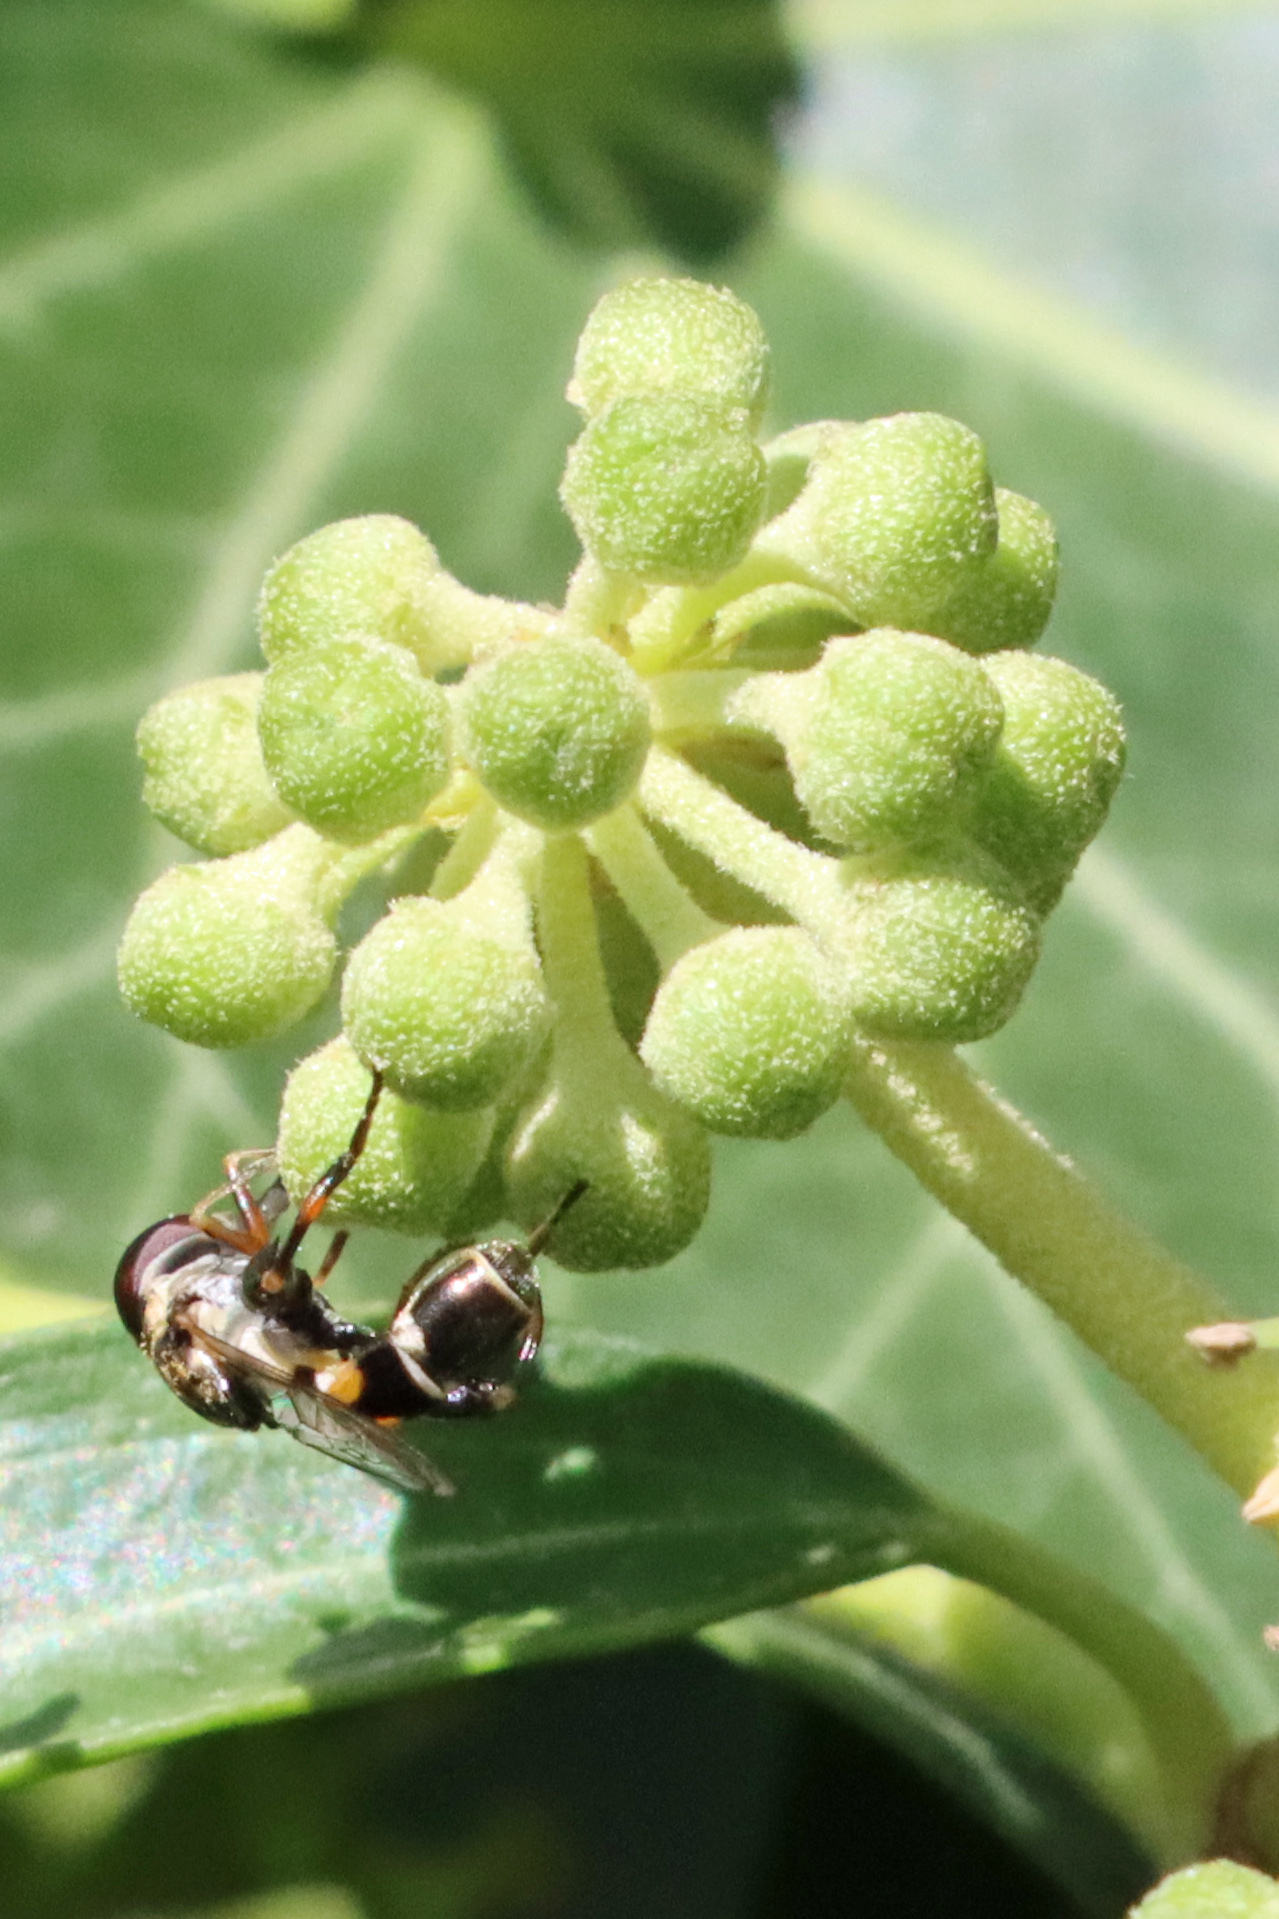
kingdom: Animalia
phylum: Arthropoda
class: Insecta
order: Diptera
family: Syrphidae
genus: Syritta
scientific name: Syritta pipiens
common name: Hover fly
